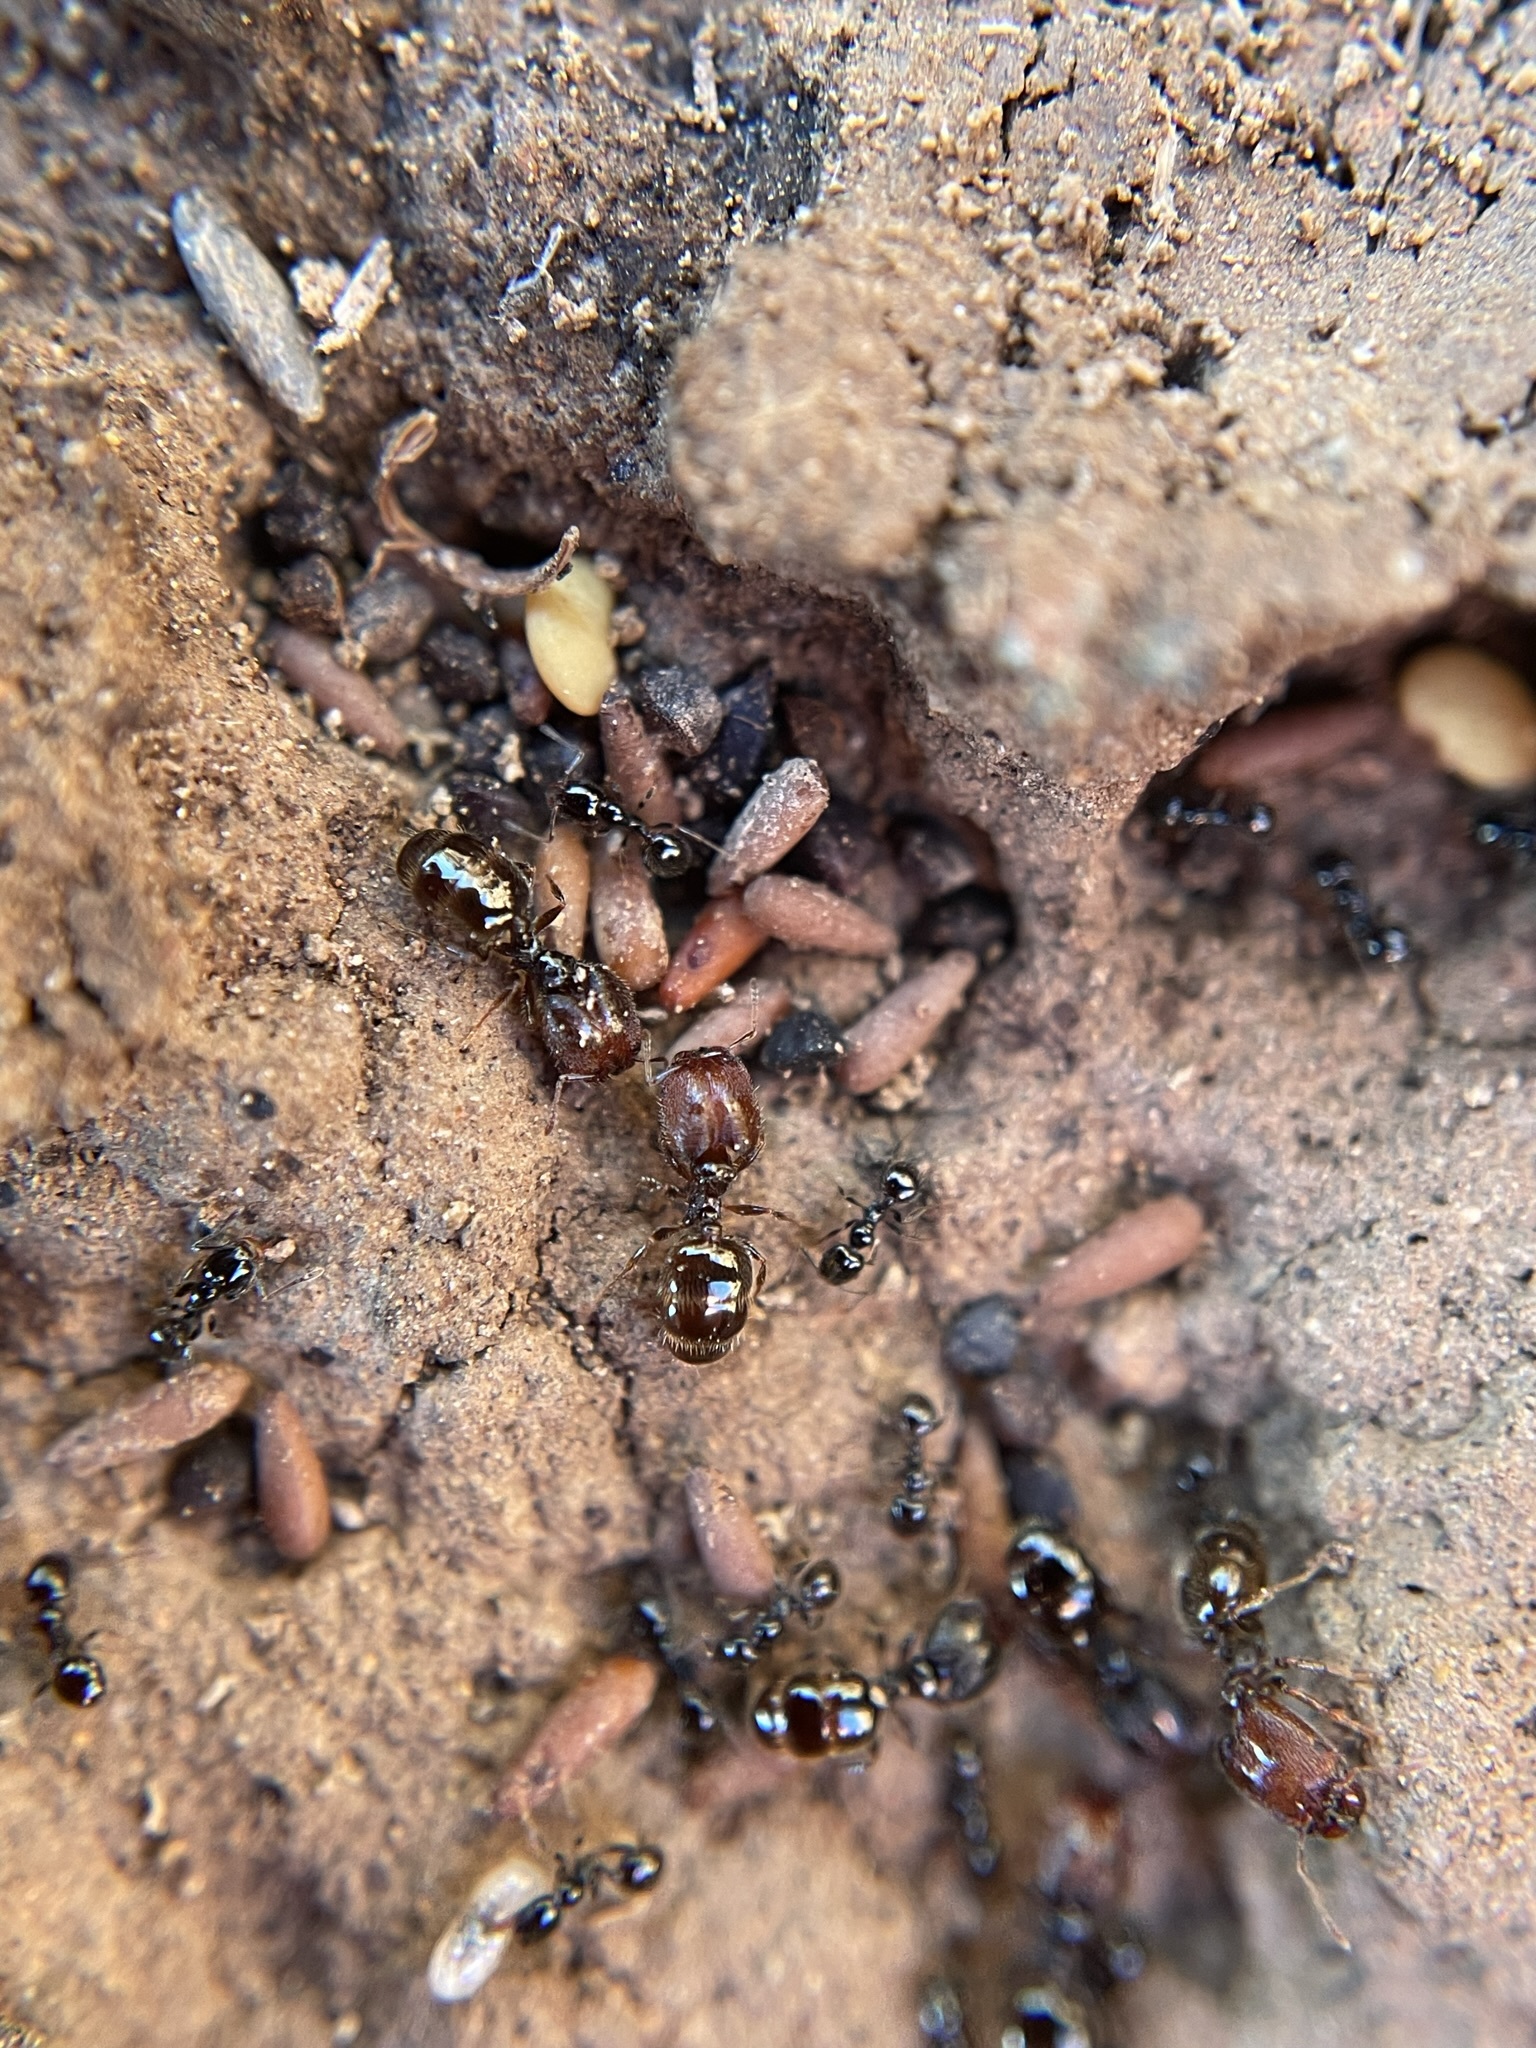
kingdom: Animalia
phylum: Arthropoda
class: Insecta
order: Hymenoptera
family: Formicidae
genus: Pheidole
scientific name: Pheidole clementensis
